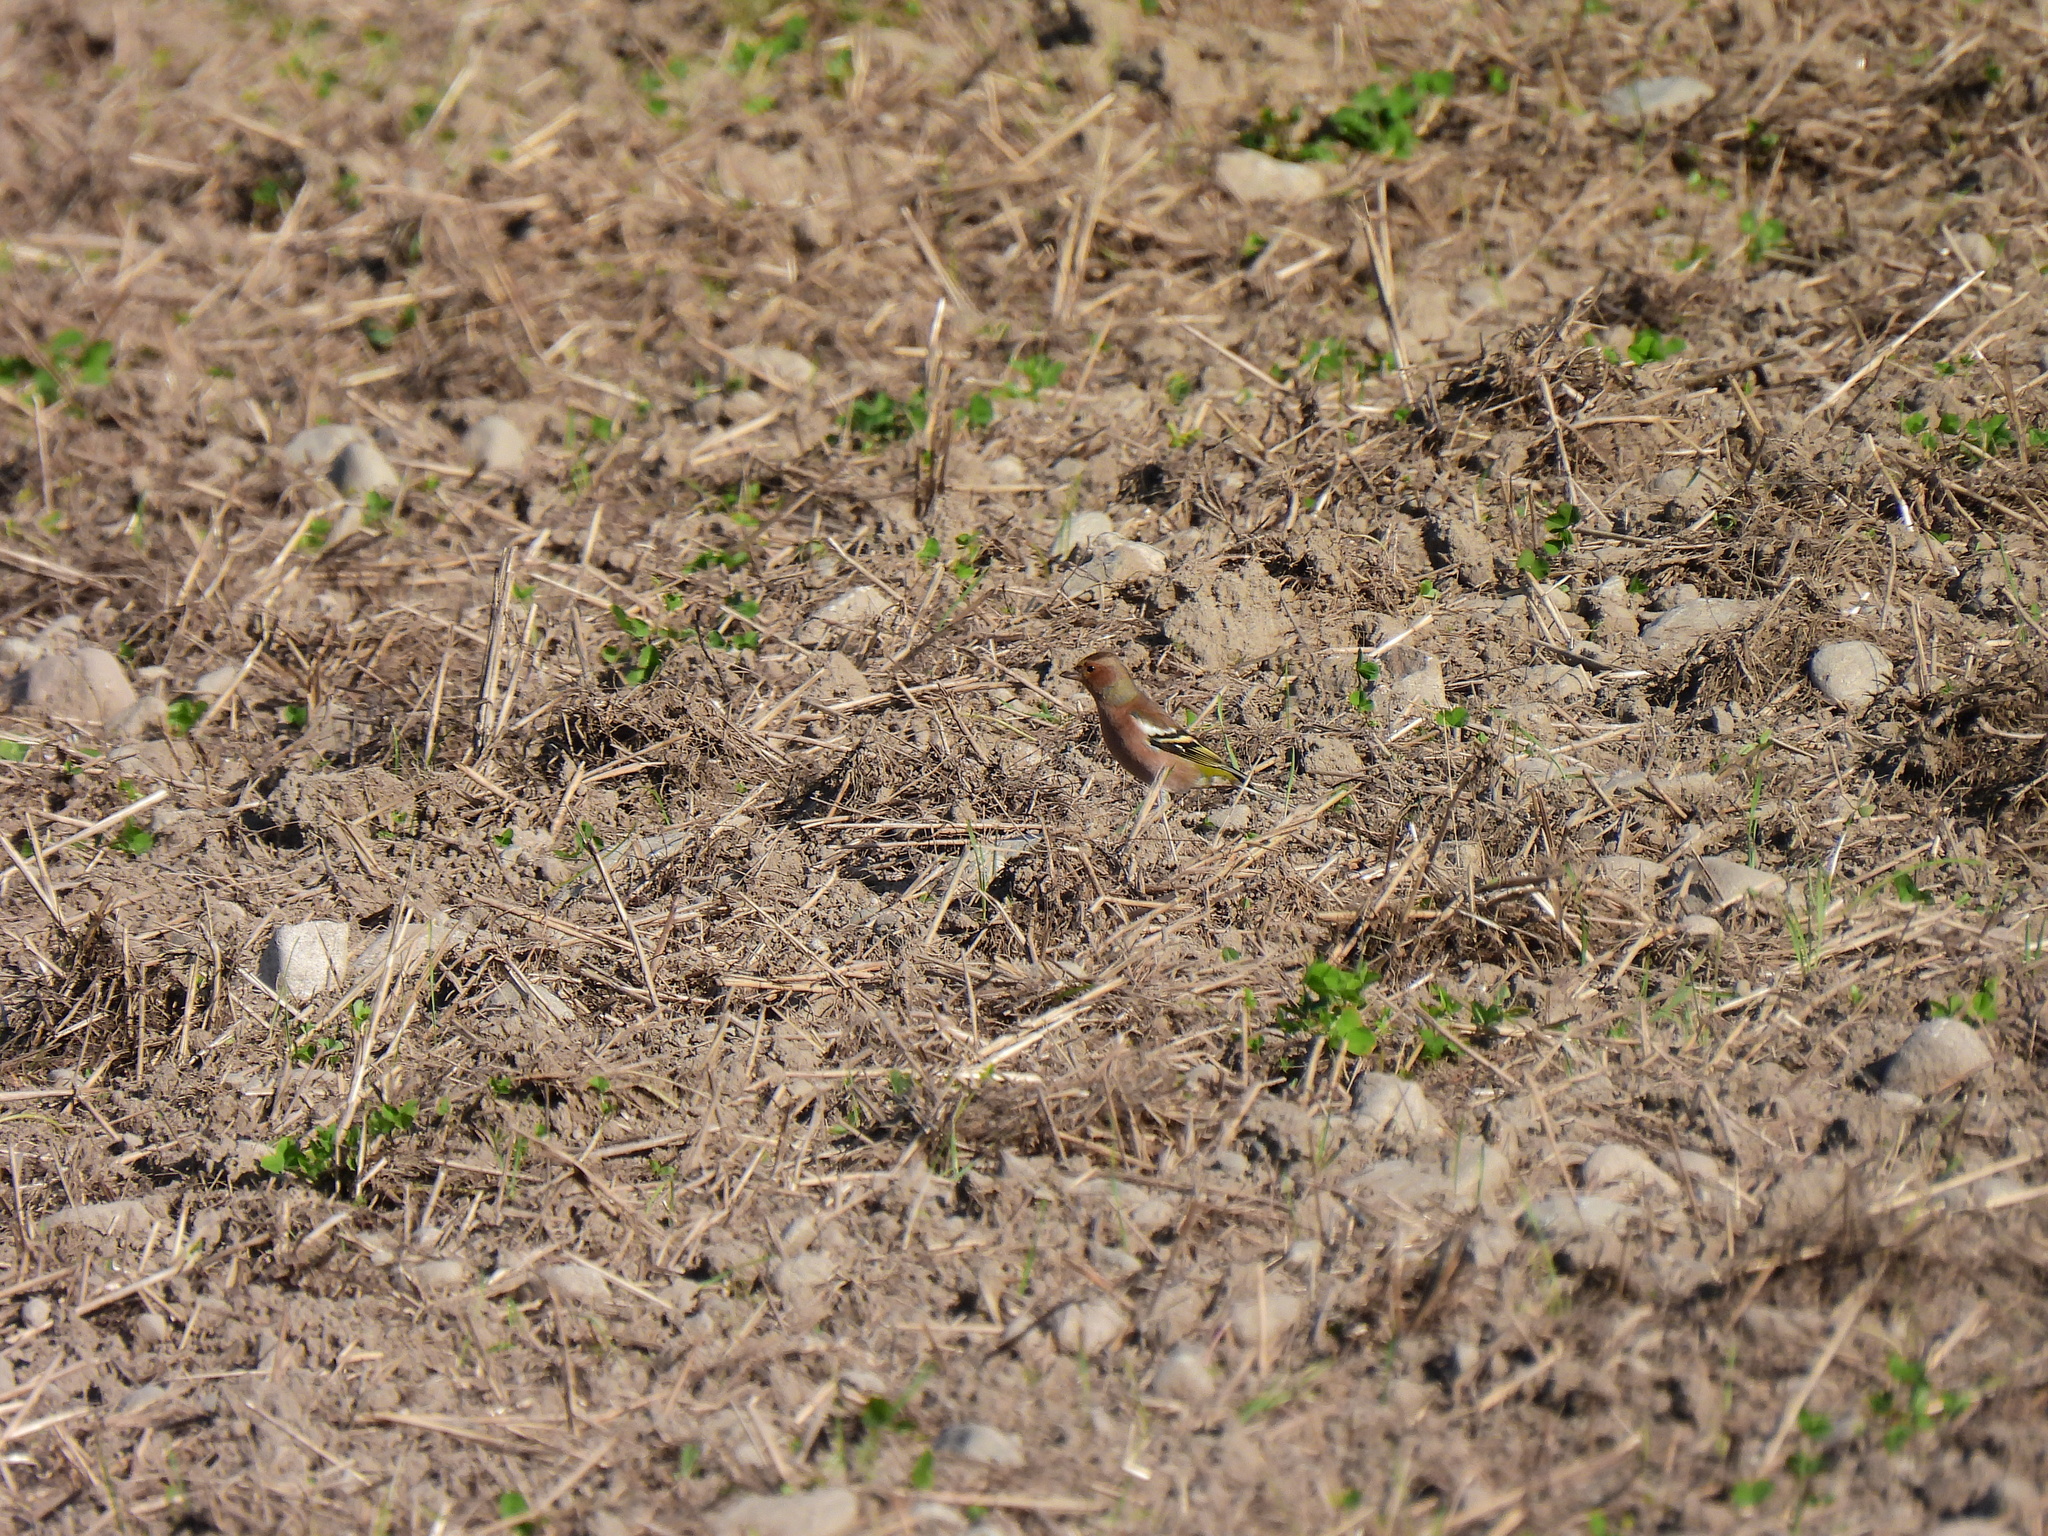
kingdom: Animalia
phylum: Chordata
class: Aves
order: Passeriformes
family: Fringillidae
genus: Fringilla
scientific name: Fringilla coelebs
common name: Common chaffinch
